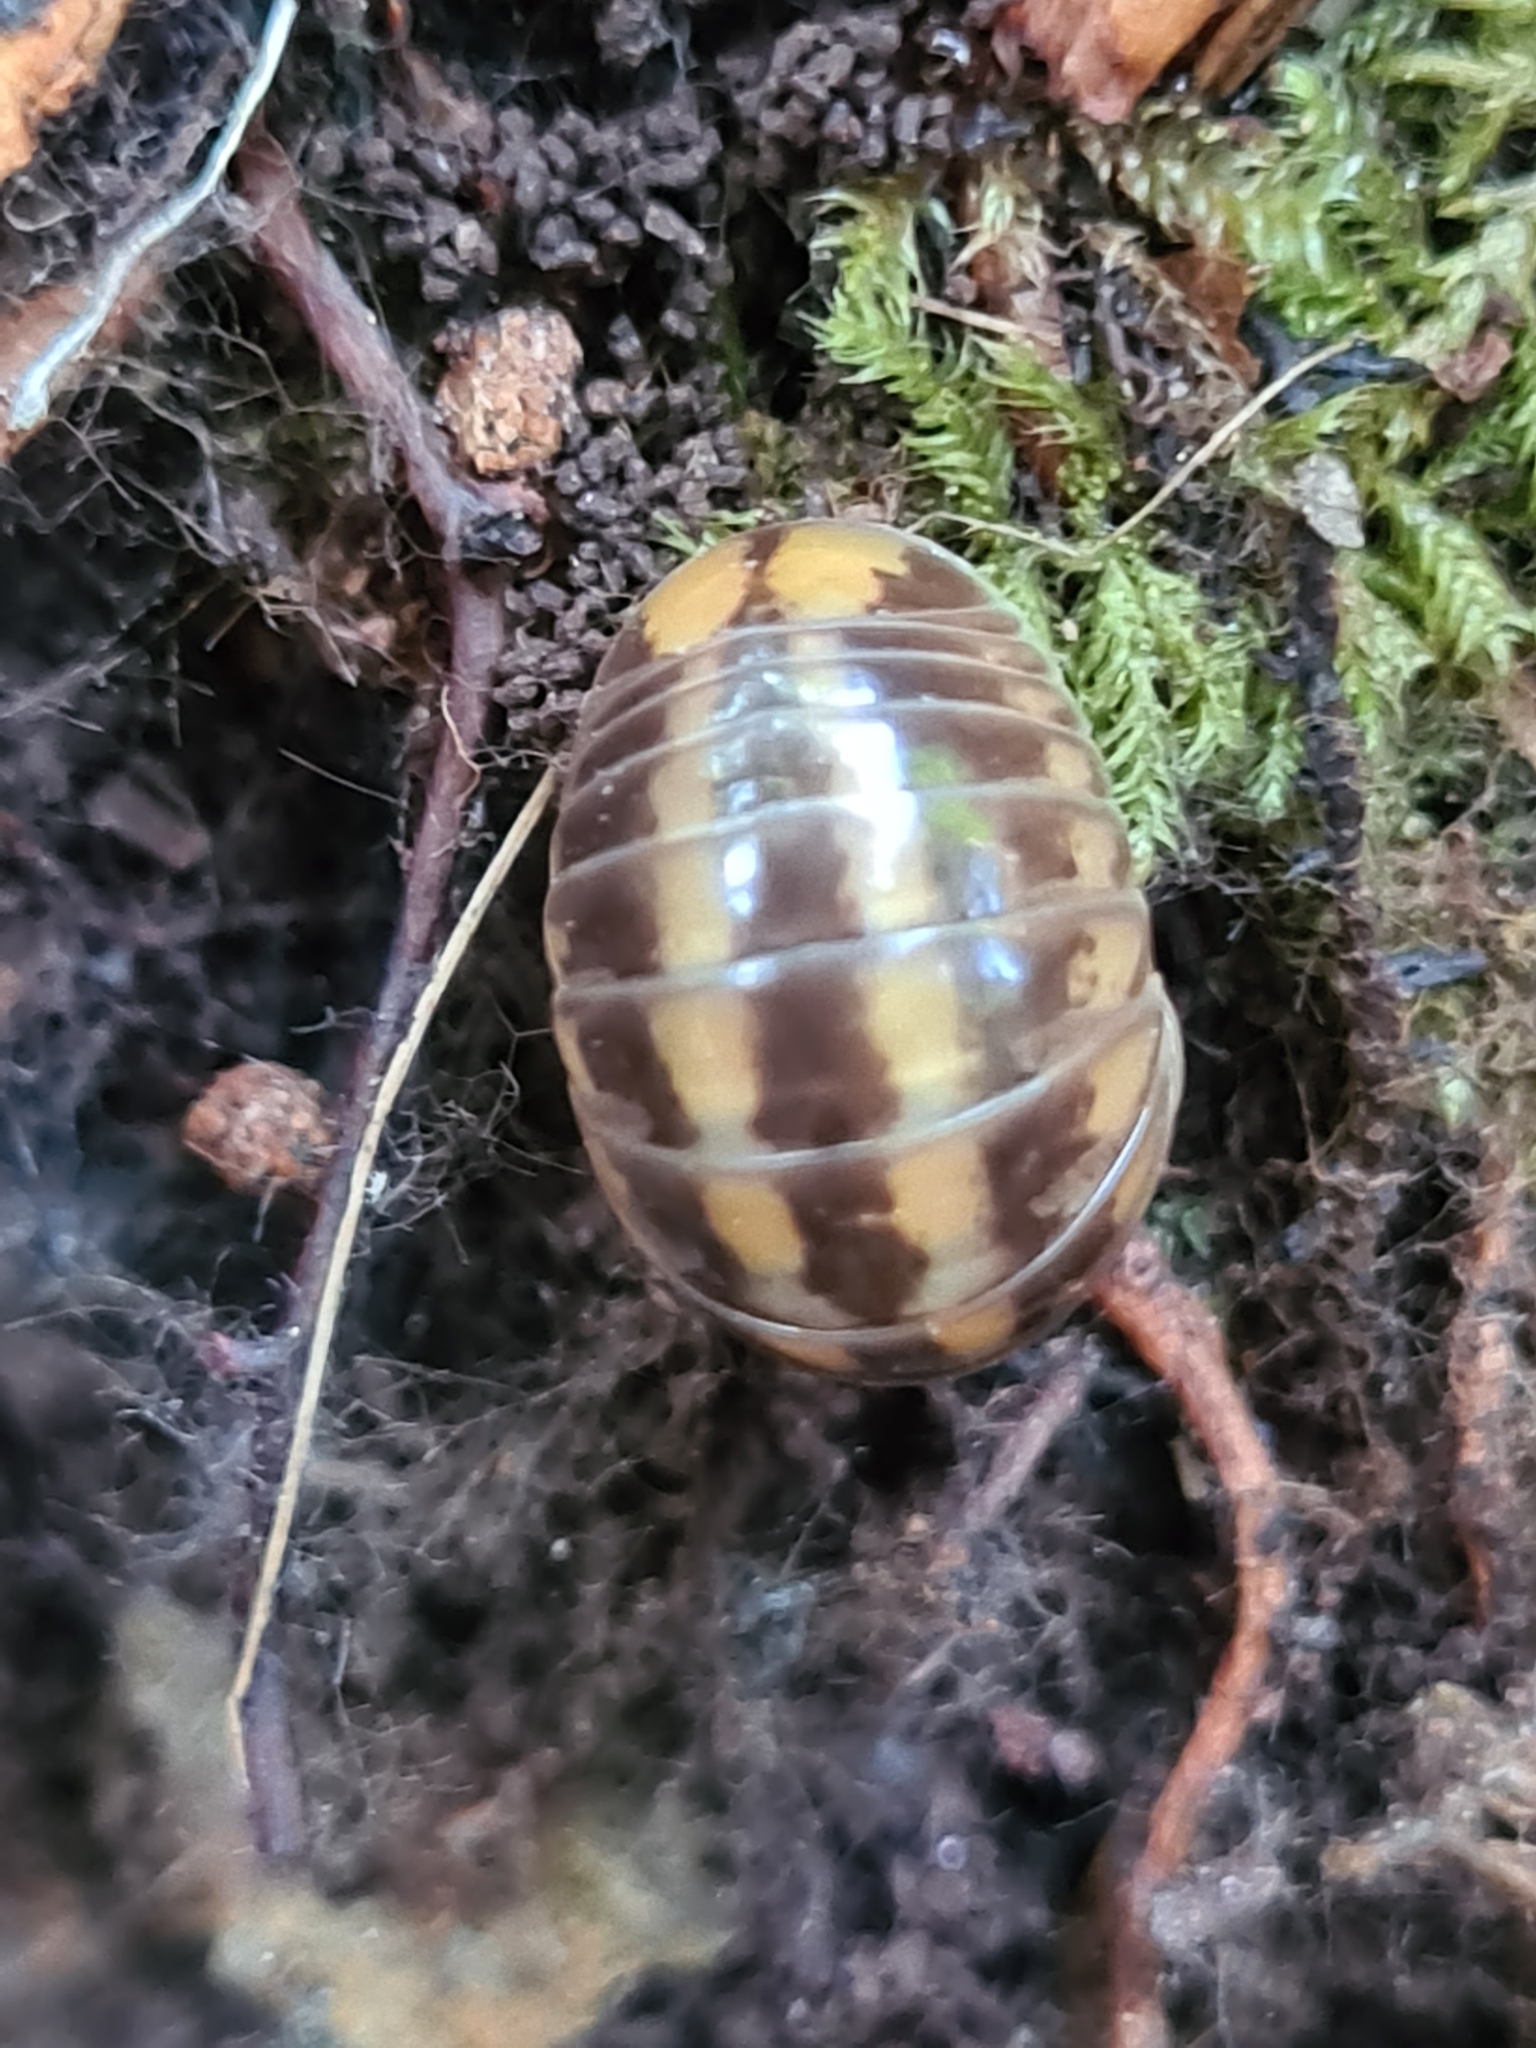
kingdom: Animalia
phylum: Arthropoda
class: Diplopoda
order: Glomerida
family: Glomeridae
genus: Glomeris
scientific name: Glomeris connexa
